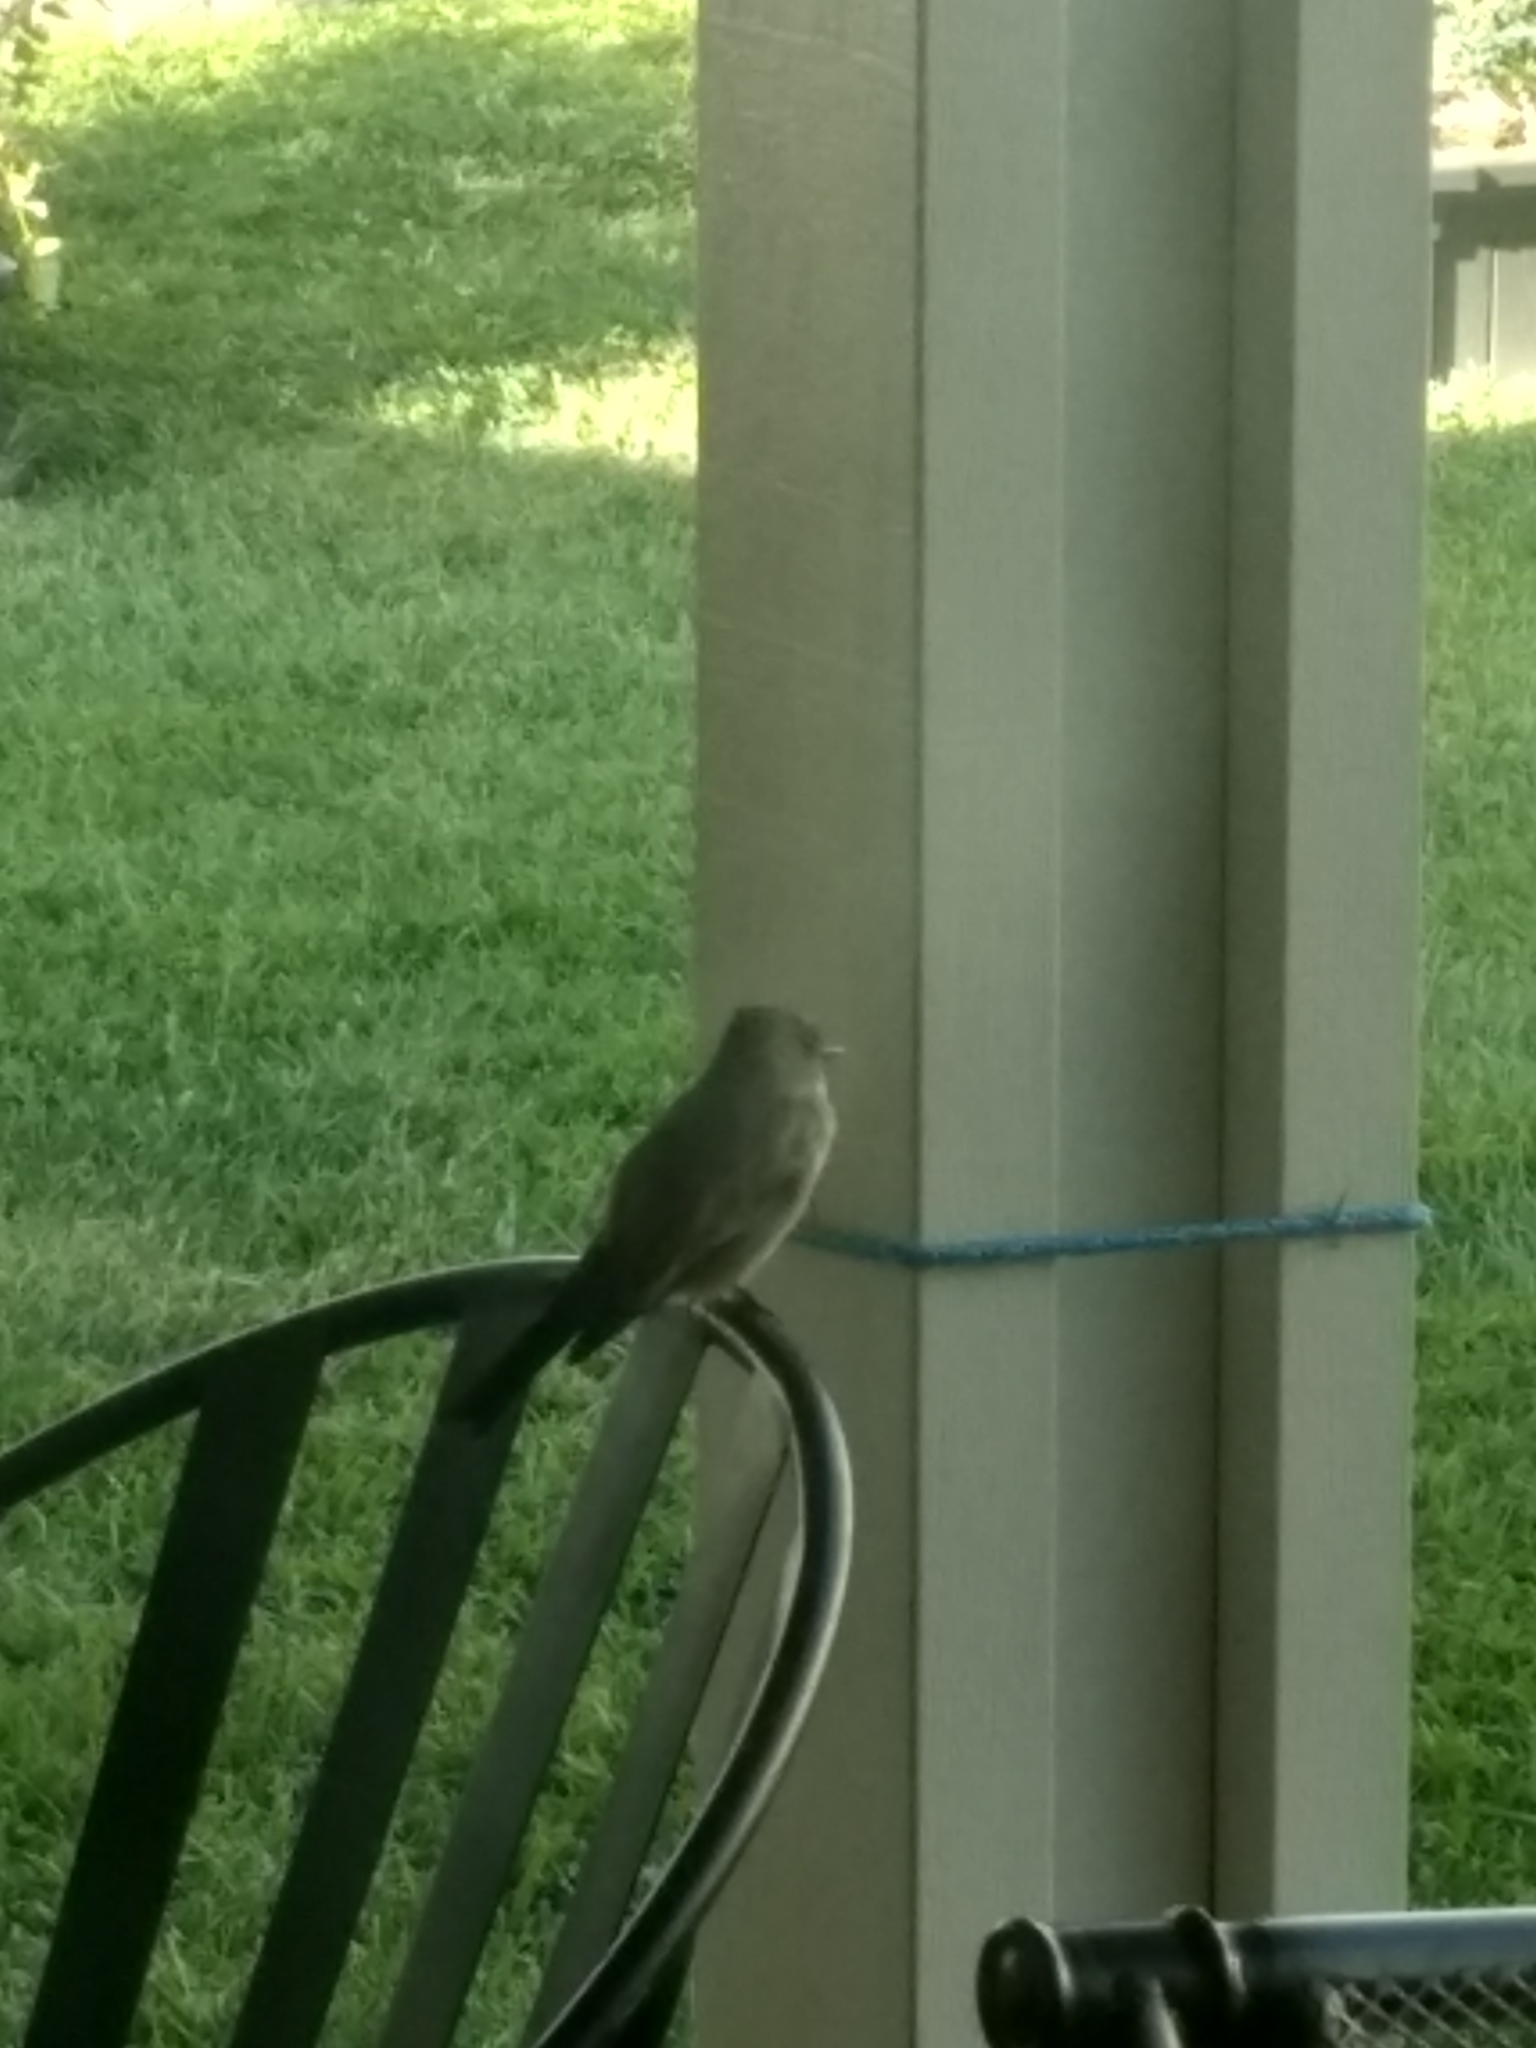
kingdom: Animalia
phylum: Chordata
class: Aves
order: Passeriformes
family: Tyrannidae
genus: Sayornis
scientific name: Sayornis saya
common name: Say's phoebe
